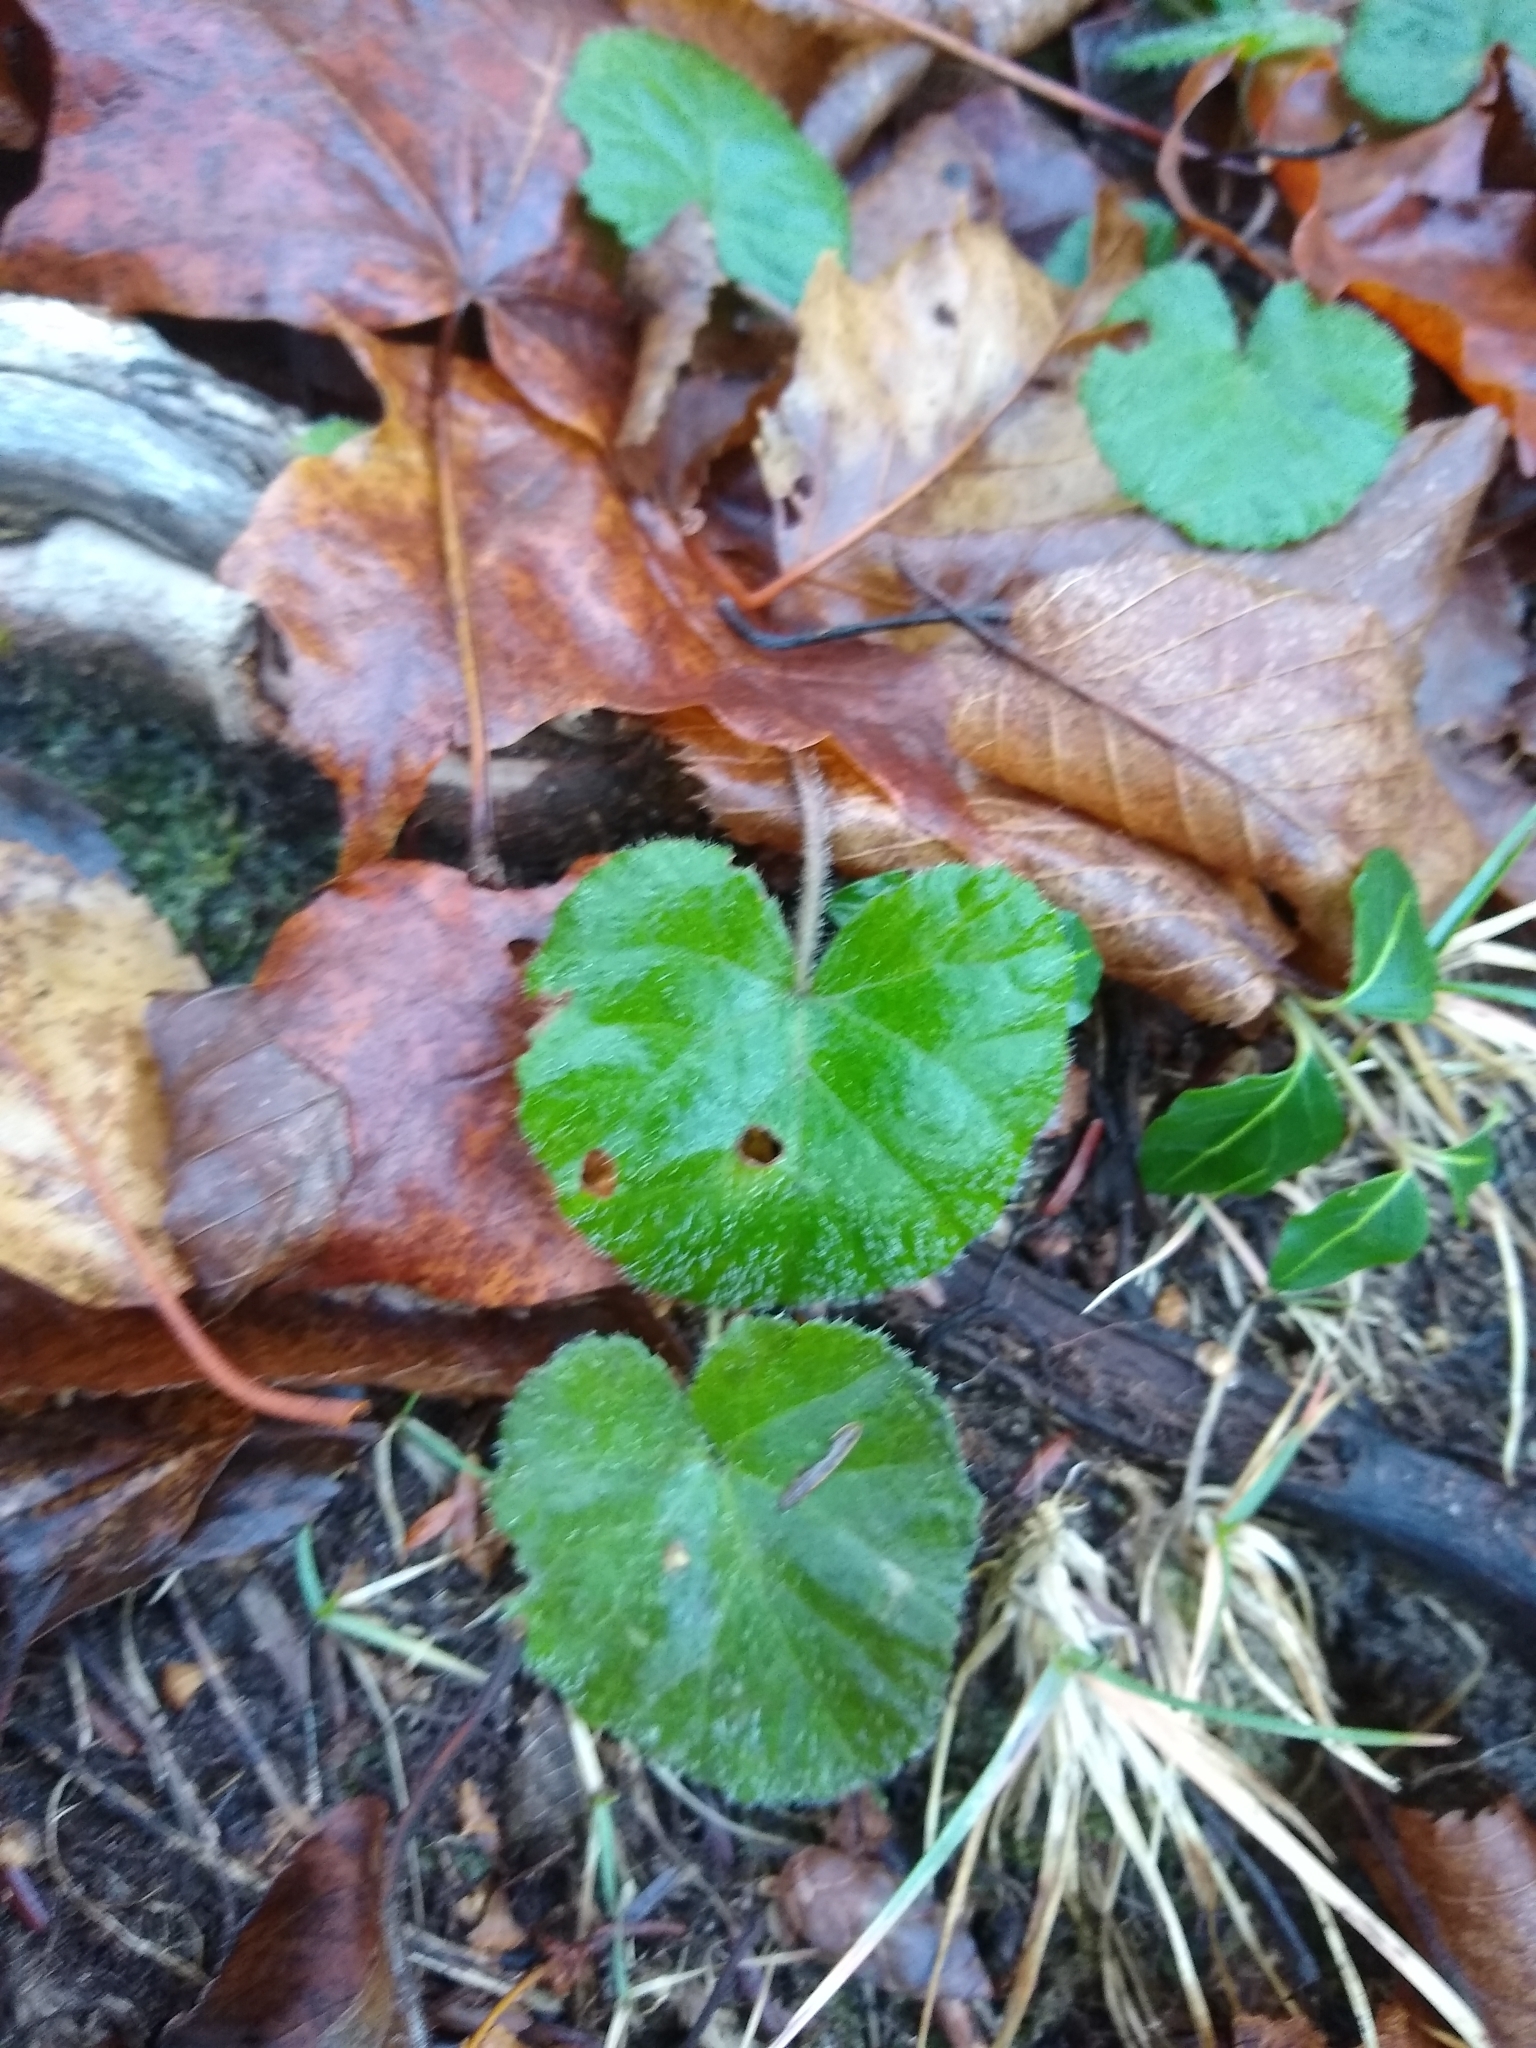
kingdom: Plantae
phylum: Tracheophyta
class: Magnoliopsida
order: Rosales
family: Rosaceae
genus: Dalibarda
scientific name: Dalibarda repens
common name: Dewdrop
